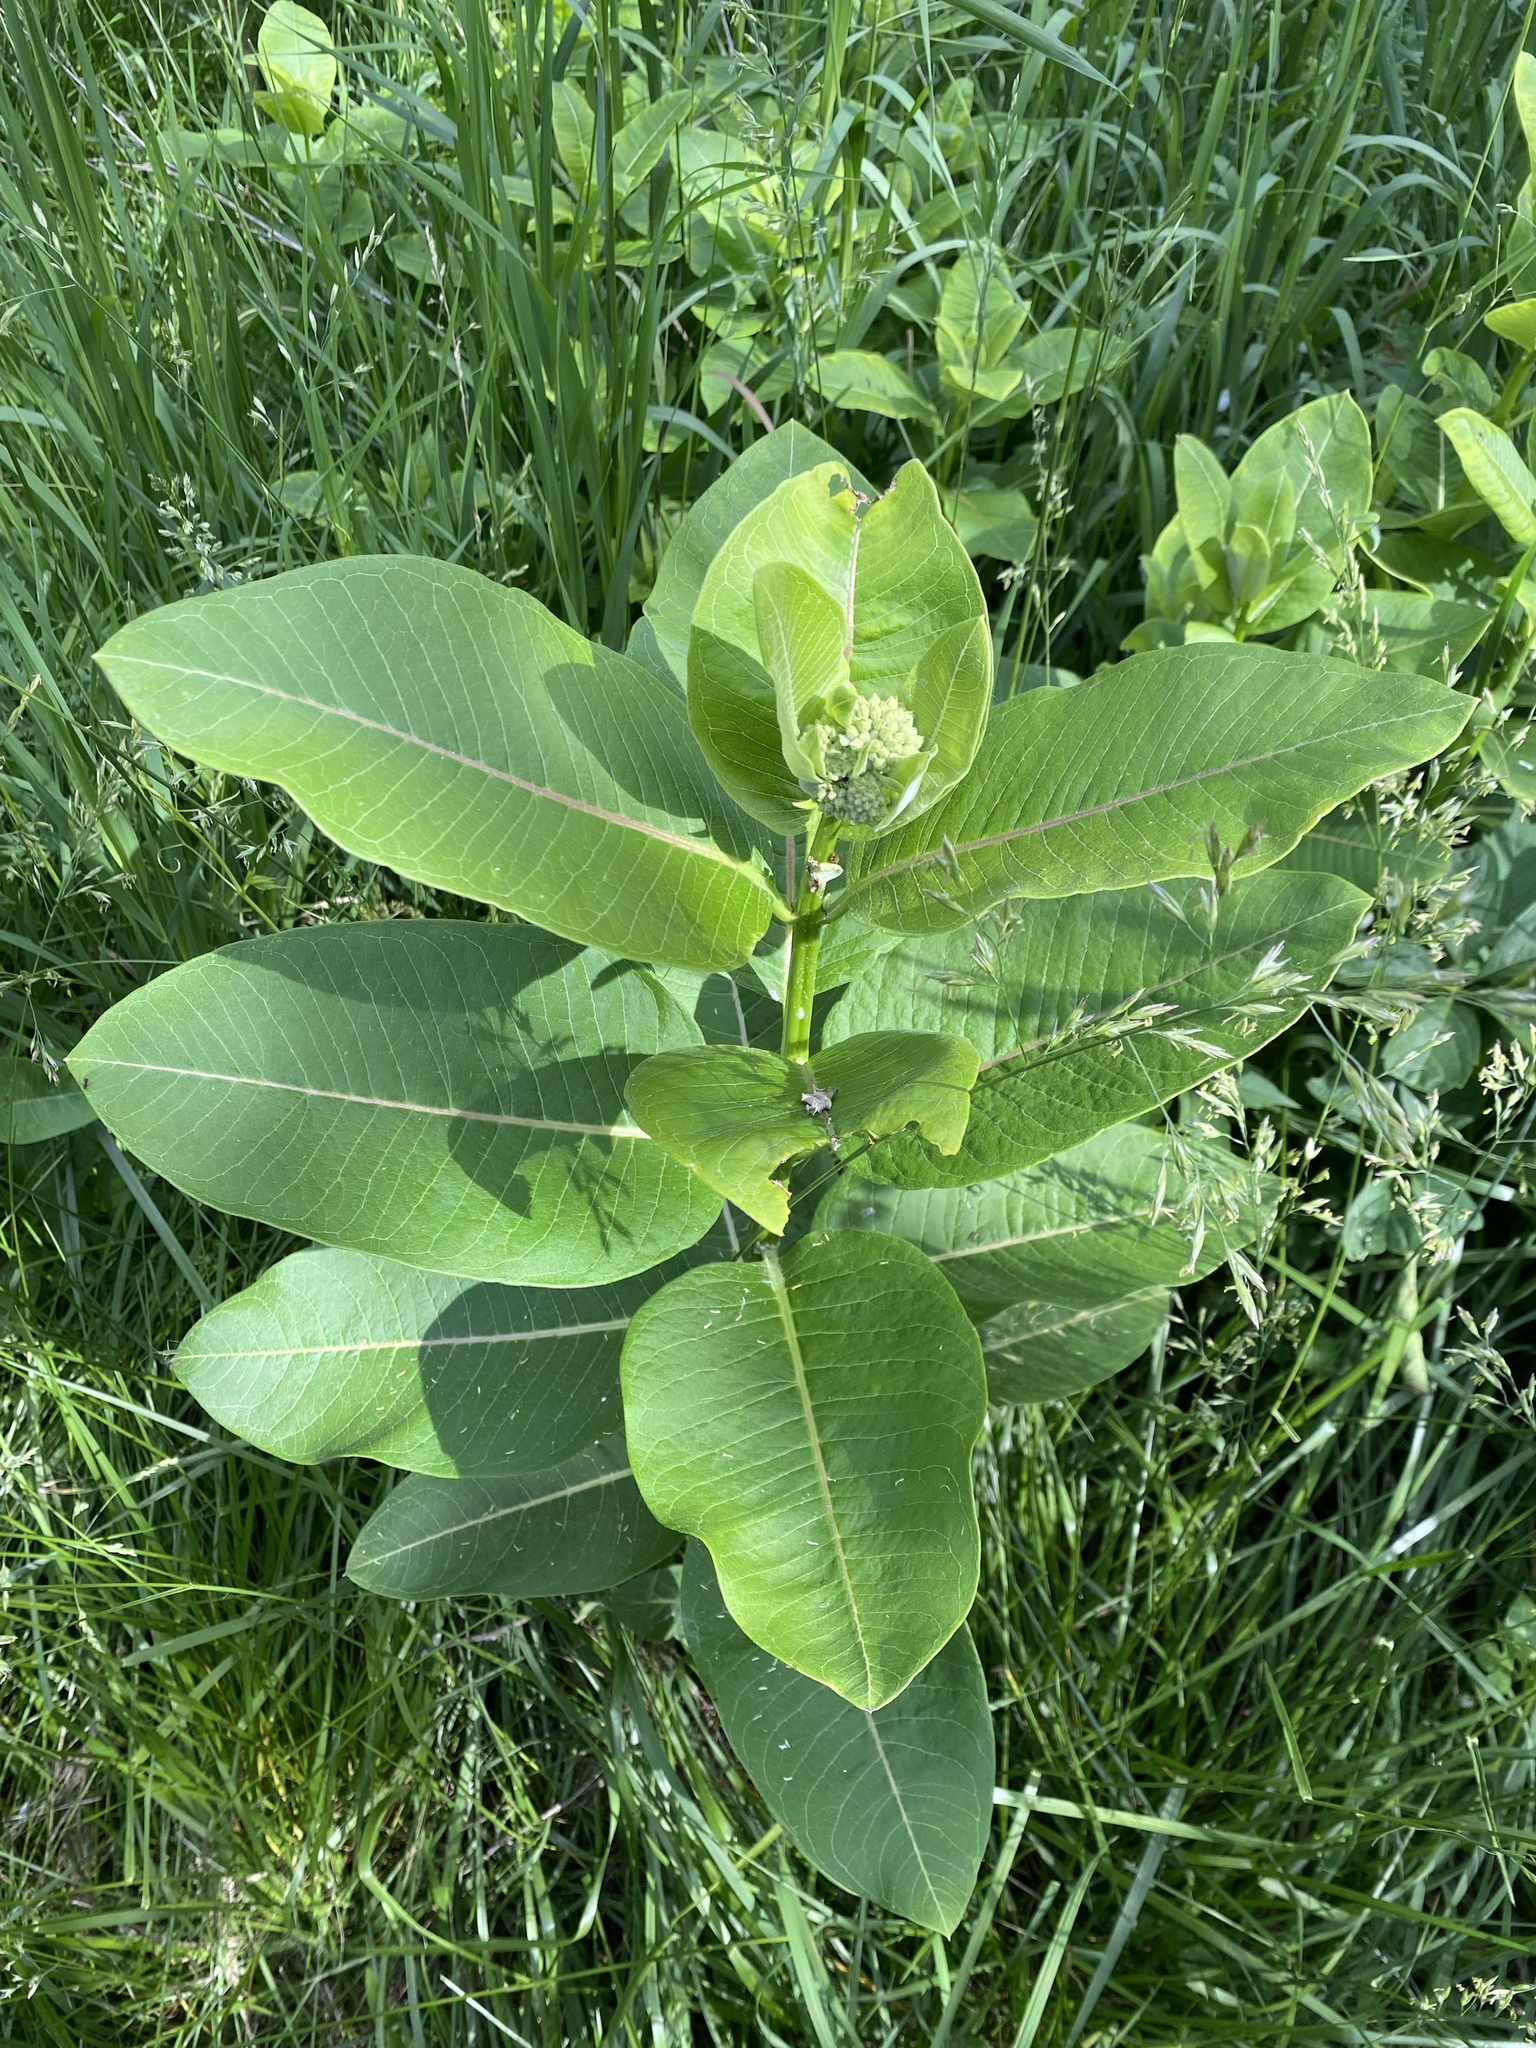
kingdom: Plantae
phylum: Tracheophyta
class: Magnoliopsida
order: Gentianales
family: Apocynaceae
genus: Asclepias
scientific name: Asclepias syriaca
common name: Common milkweed
